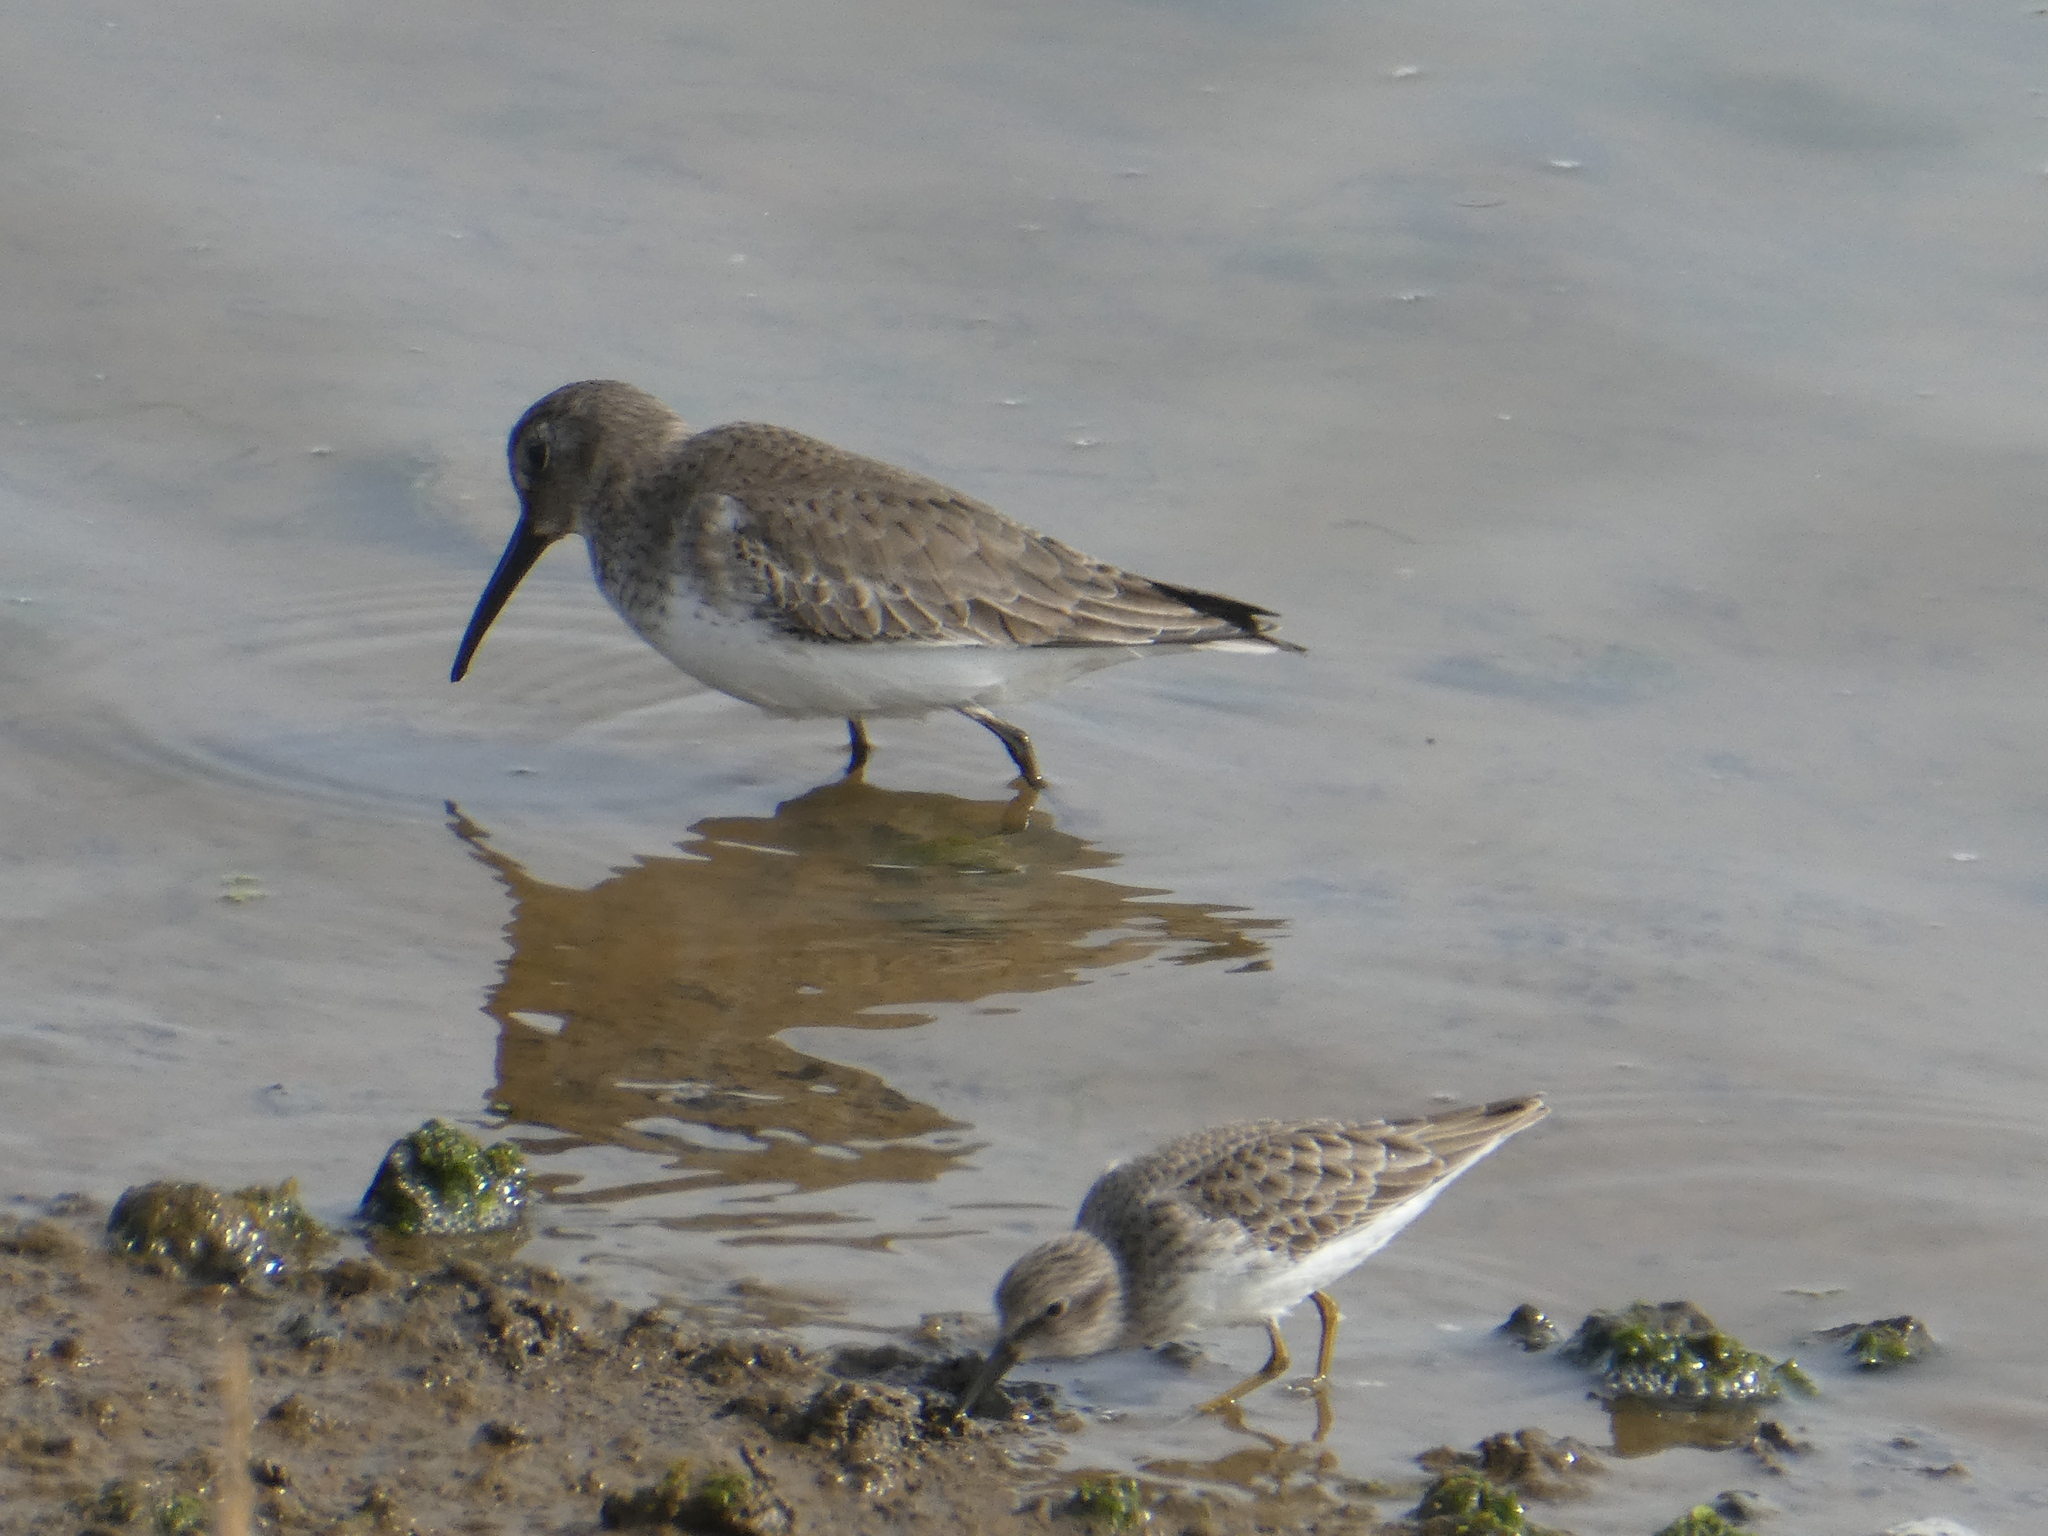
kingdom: Animalia
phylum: Chordata
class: Aves
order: Charadriiformes
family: Scolopacidae
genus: Calidris
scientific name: Calidris alpina
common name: Dunlin
